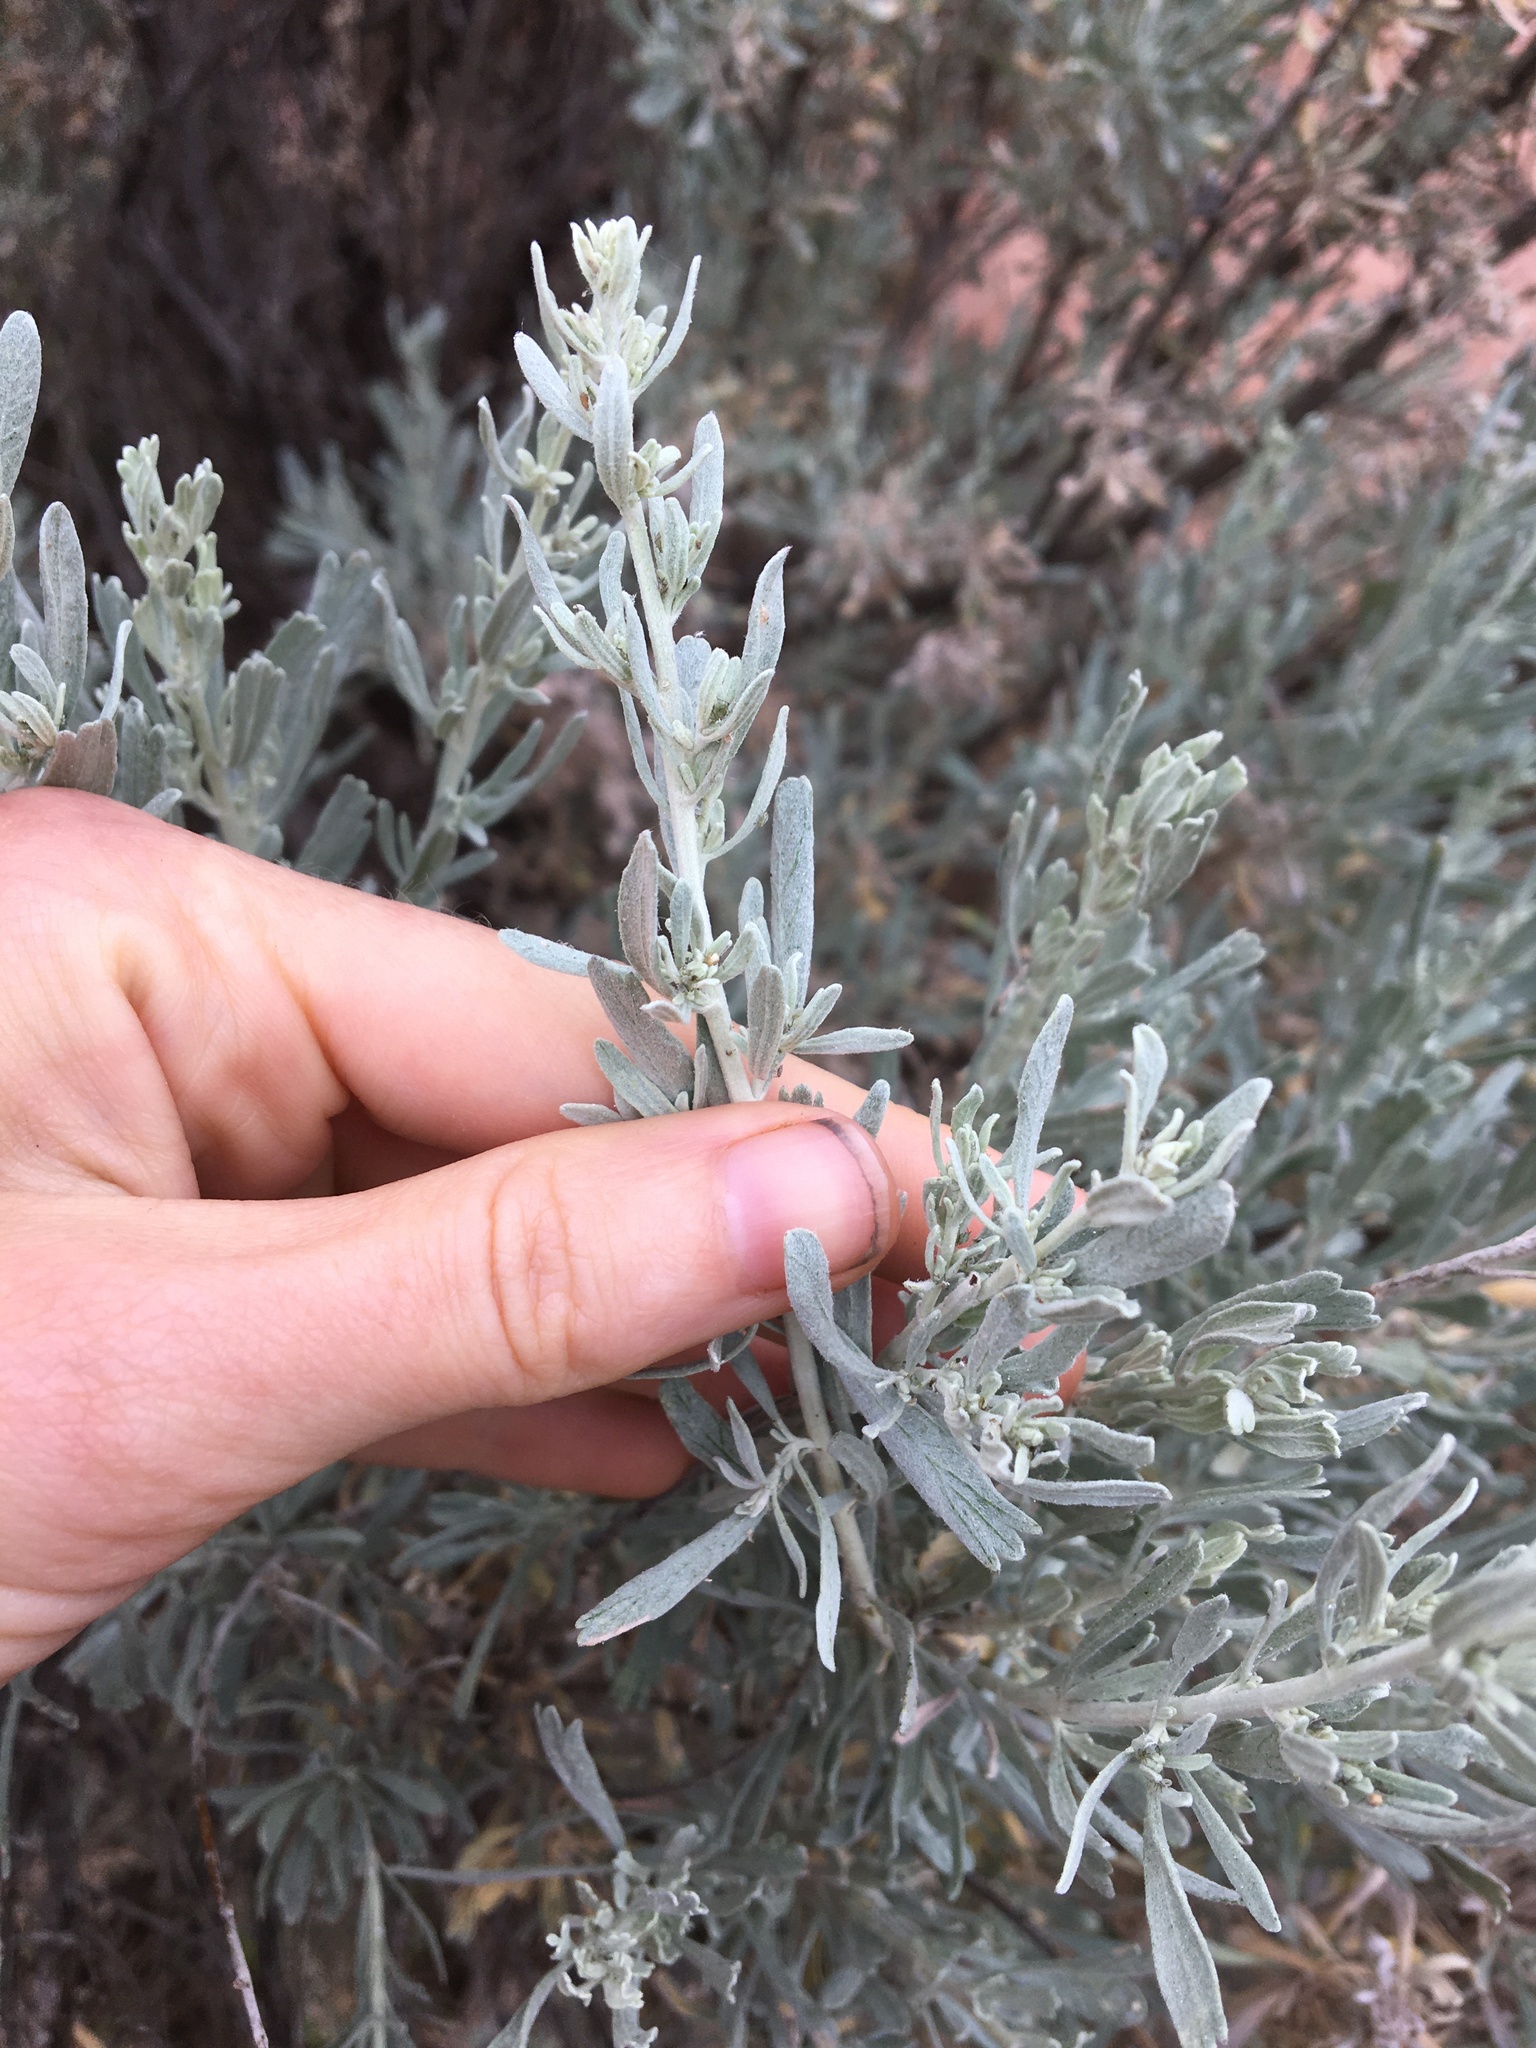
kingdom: Plantae
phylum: Tracheophyta
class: Magnoliopsida
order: Asterales
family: Asteraceae
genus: Artemisia
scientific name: Artemisia tridentata
